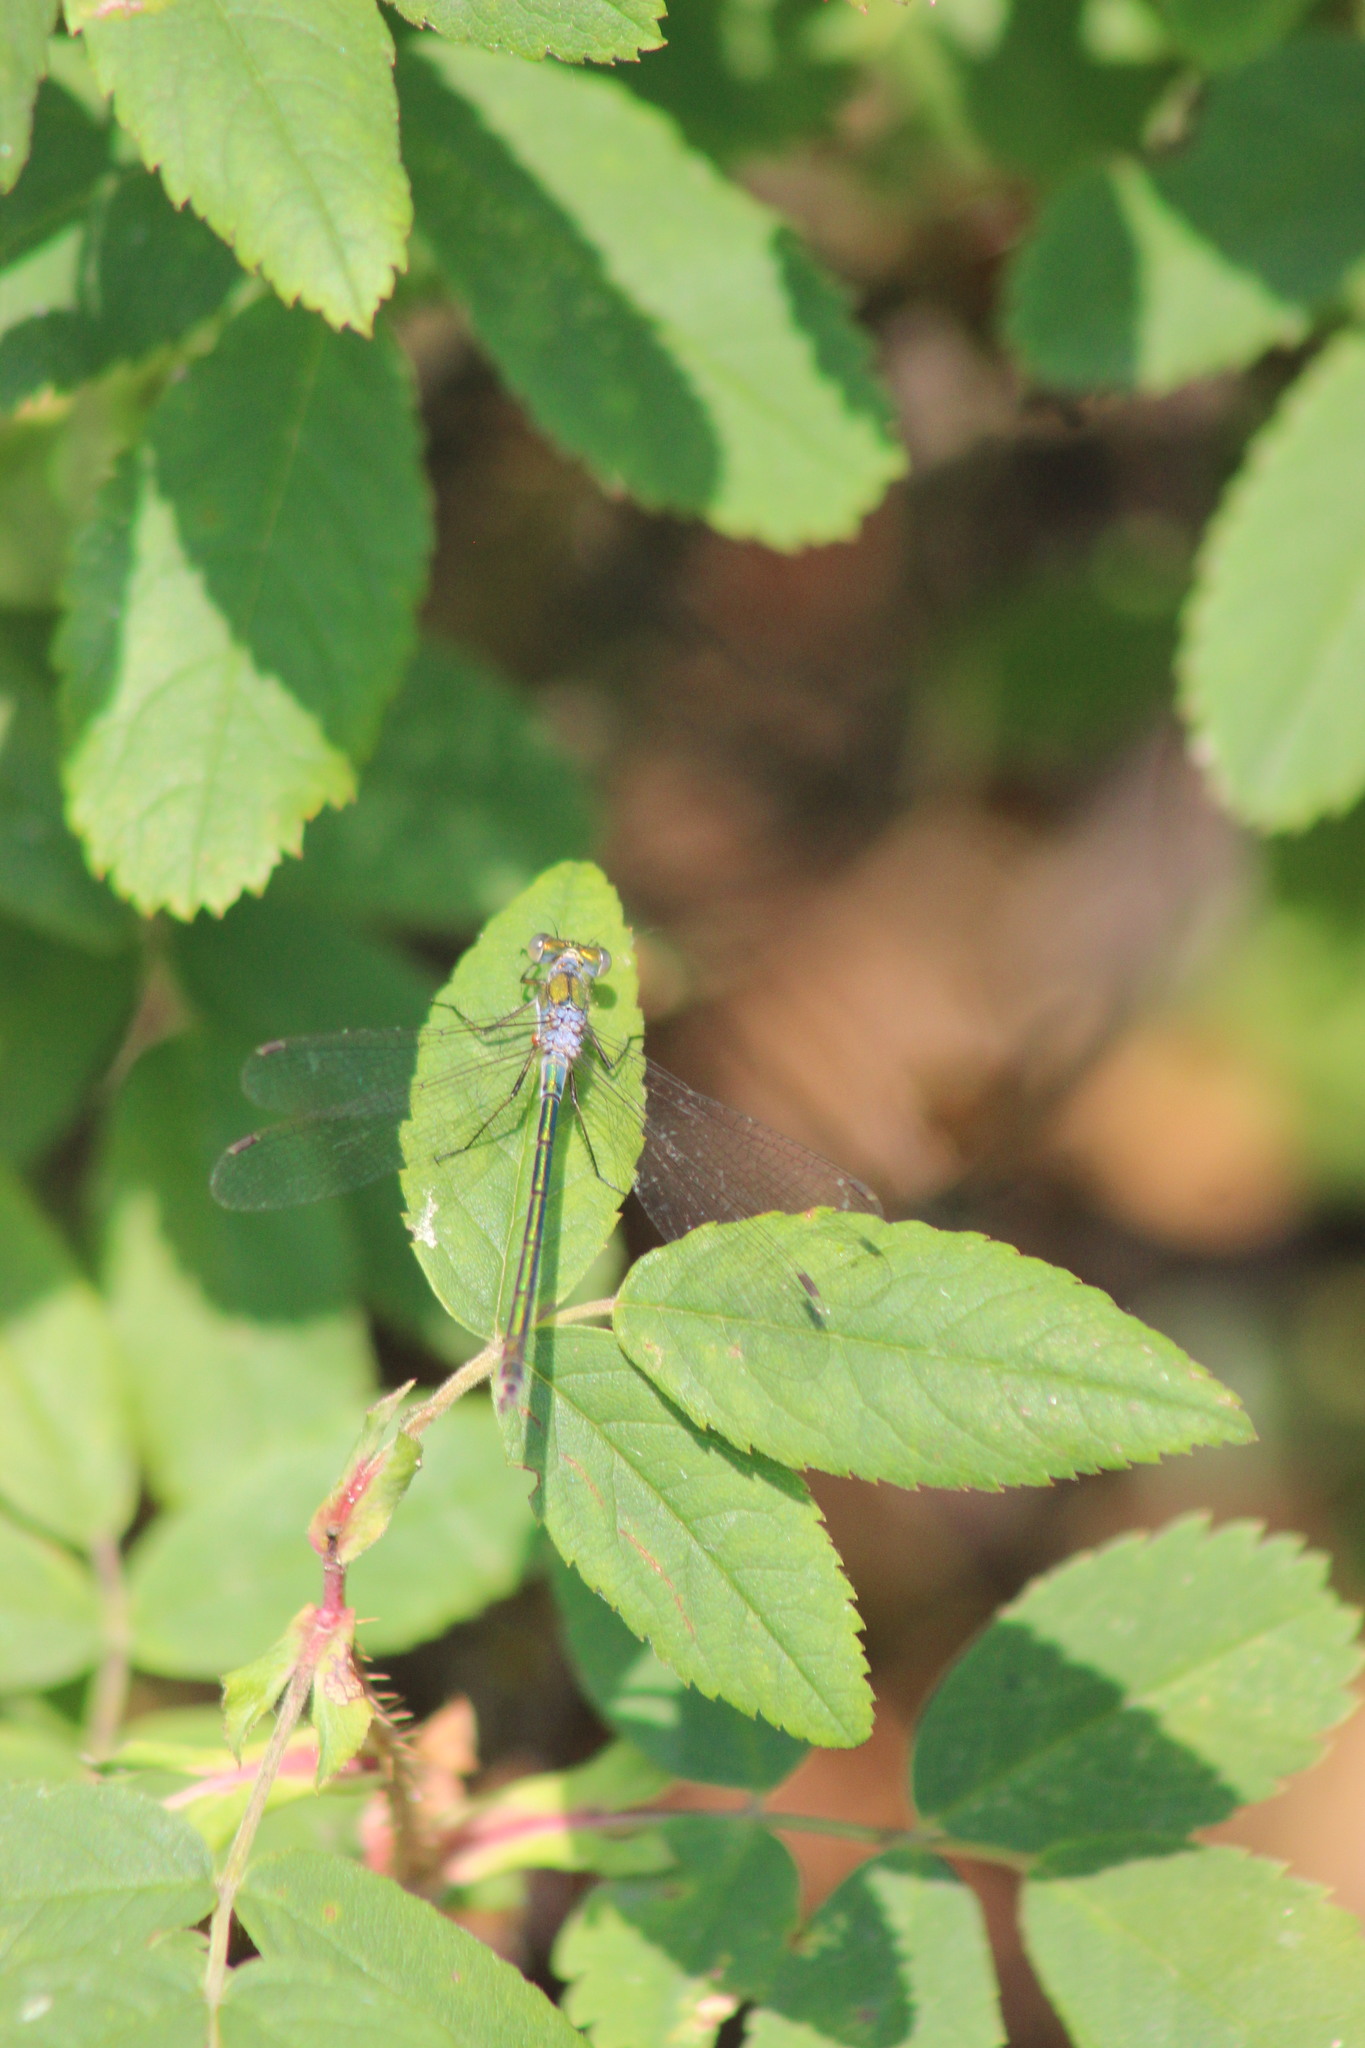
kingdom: Animalia
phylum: Arthropoda
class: Insecta
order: Odonata
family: Lestidae
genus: Lestes
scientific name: Lestes sponsa
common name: Common spreadwing
